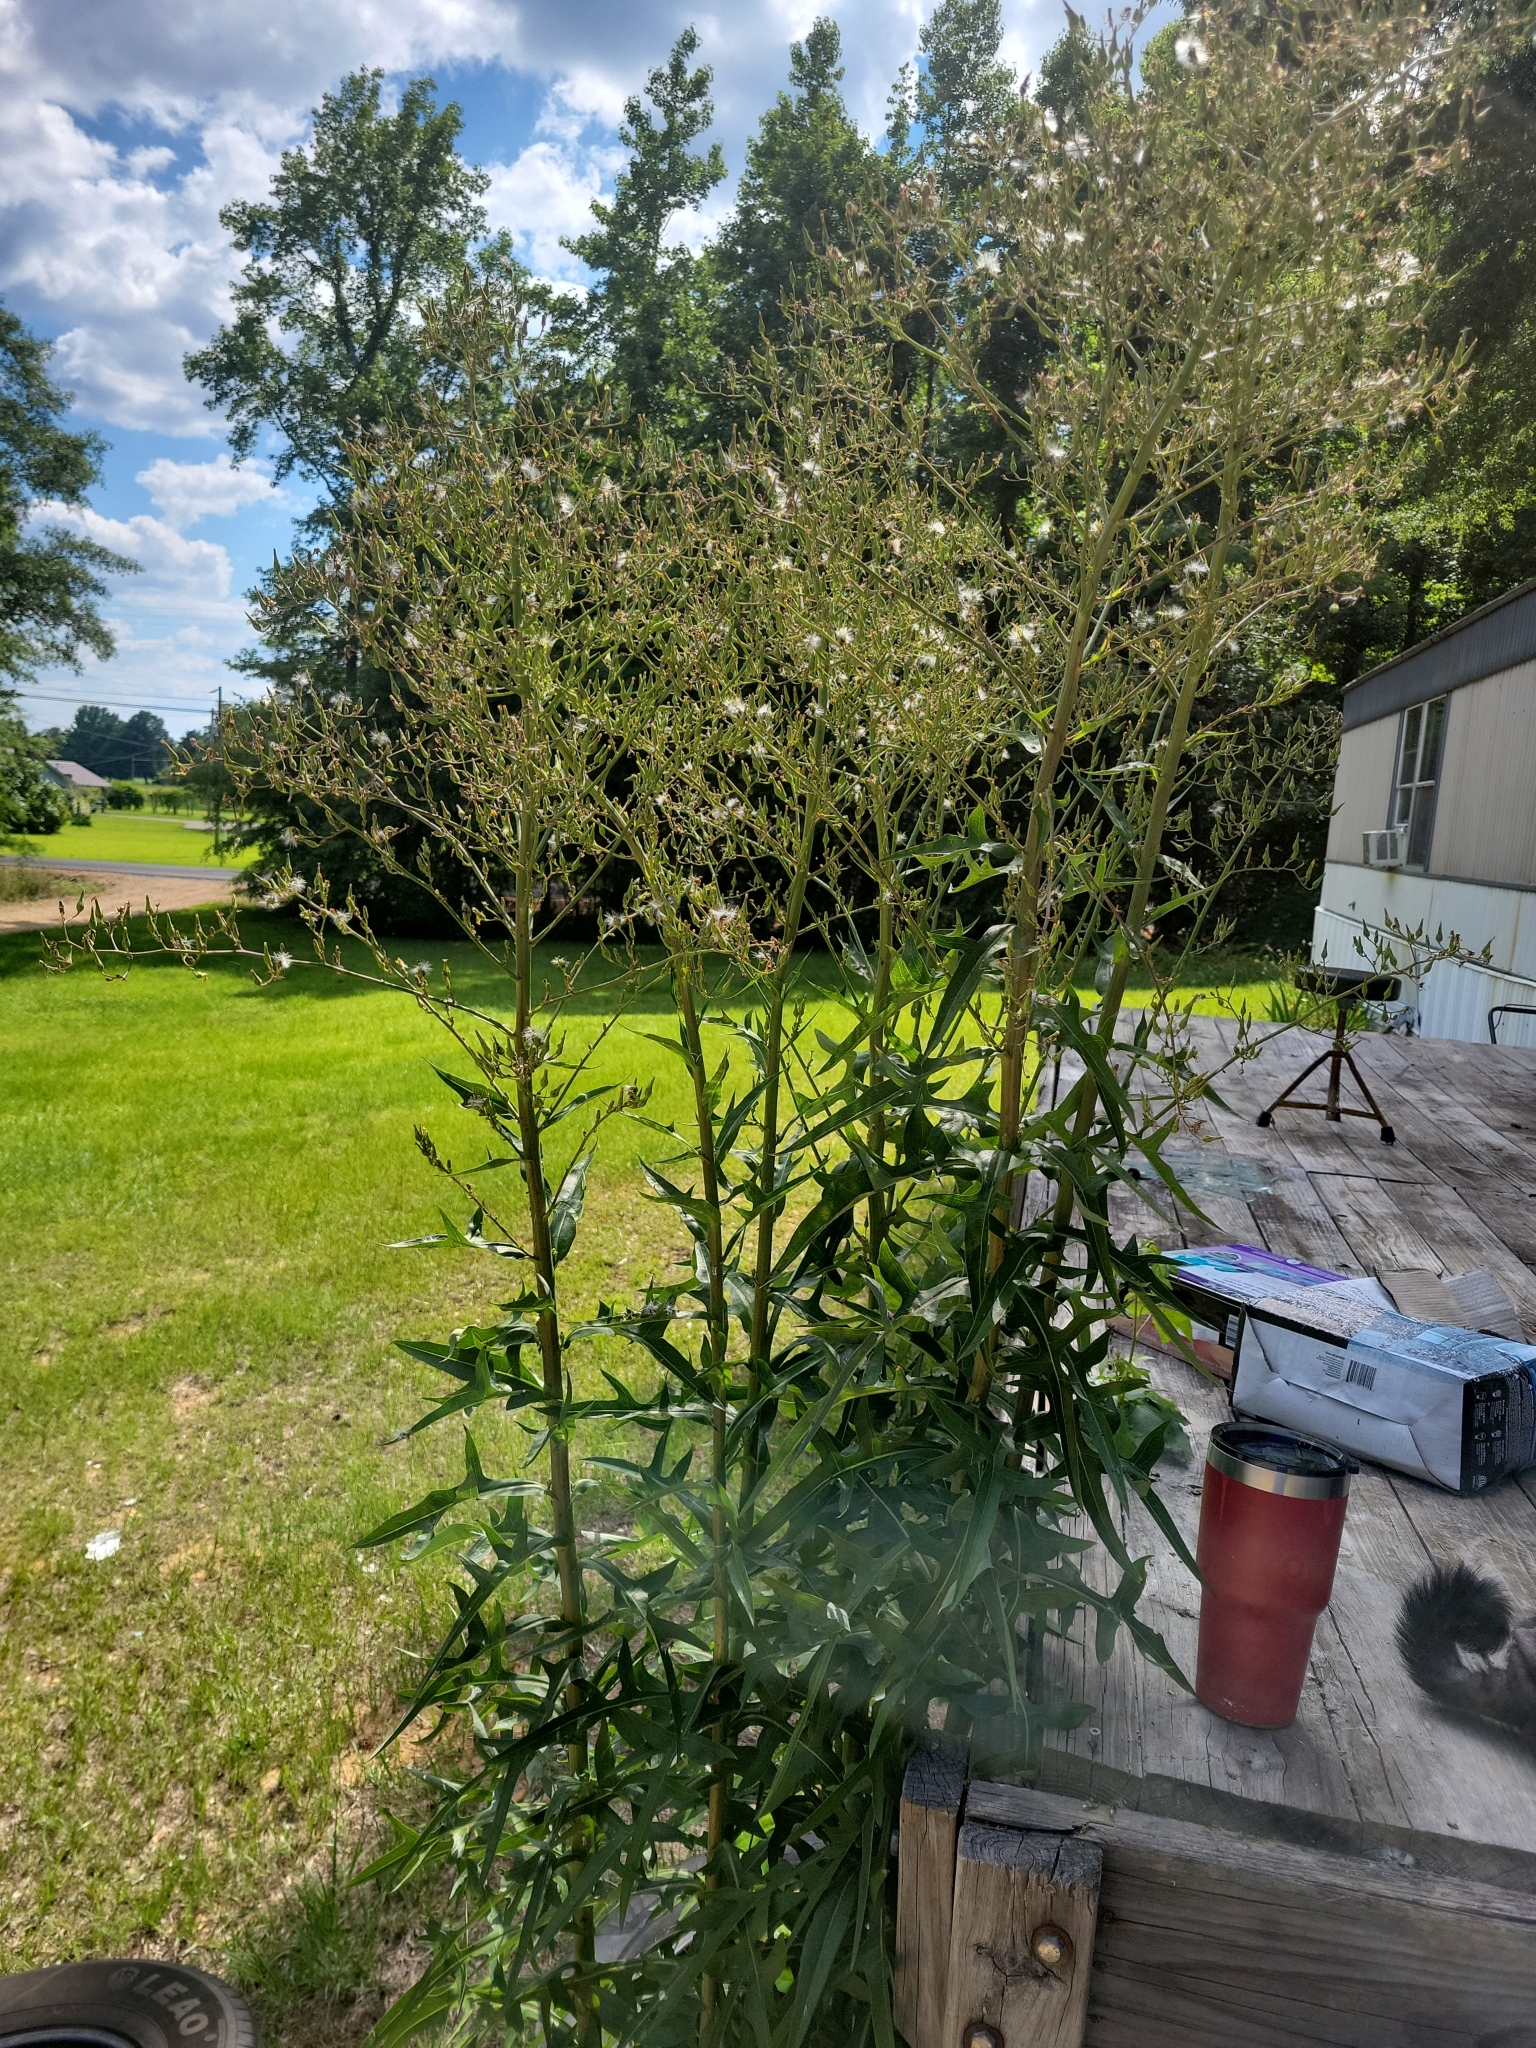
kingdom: Plantae
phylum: Tracheophyta
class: Magnoliopsida
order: Asterales
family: Asteraceae
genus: Lactuca
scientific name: Lactuca canadensis
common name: Canada lettuce
